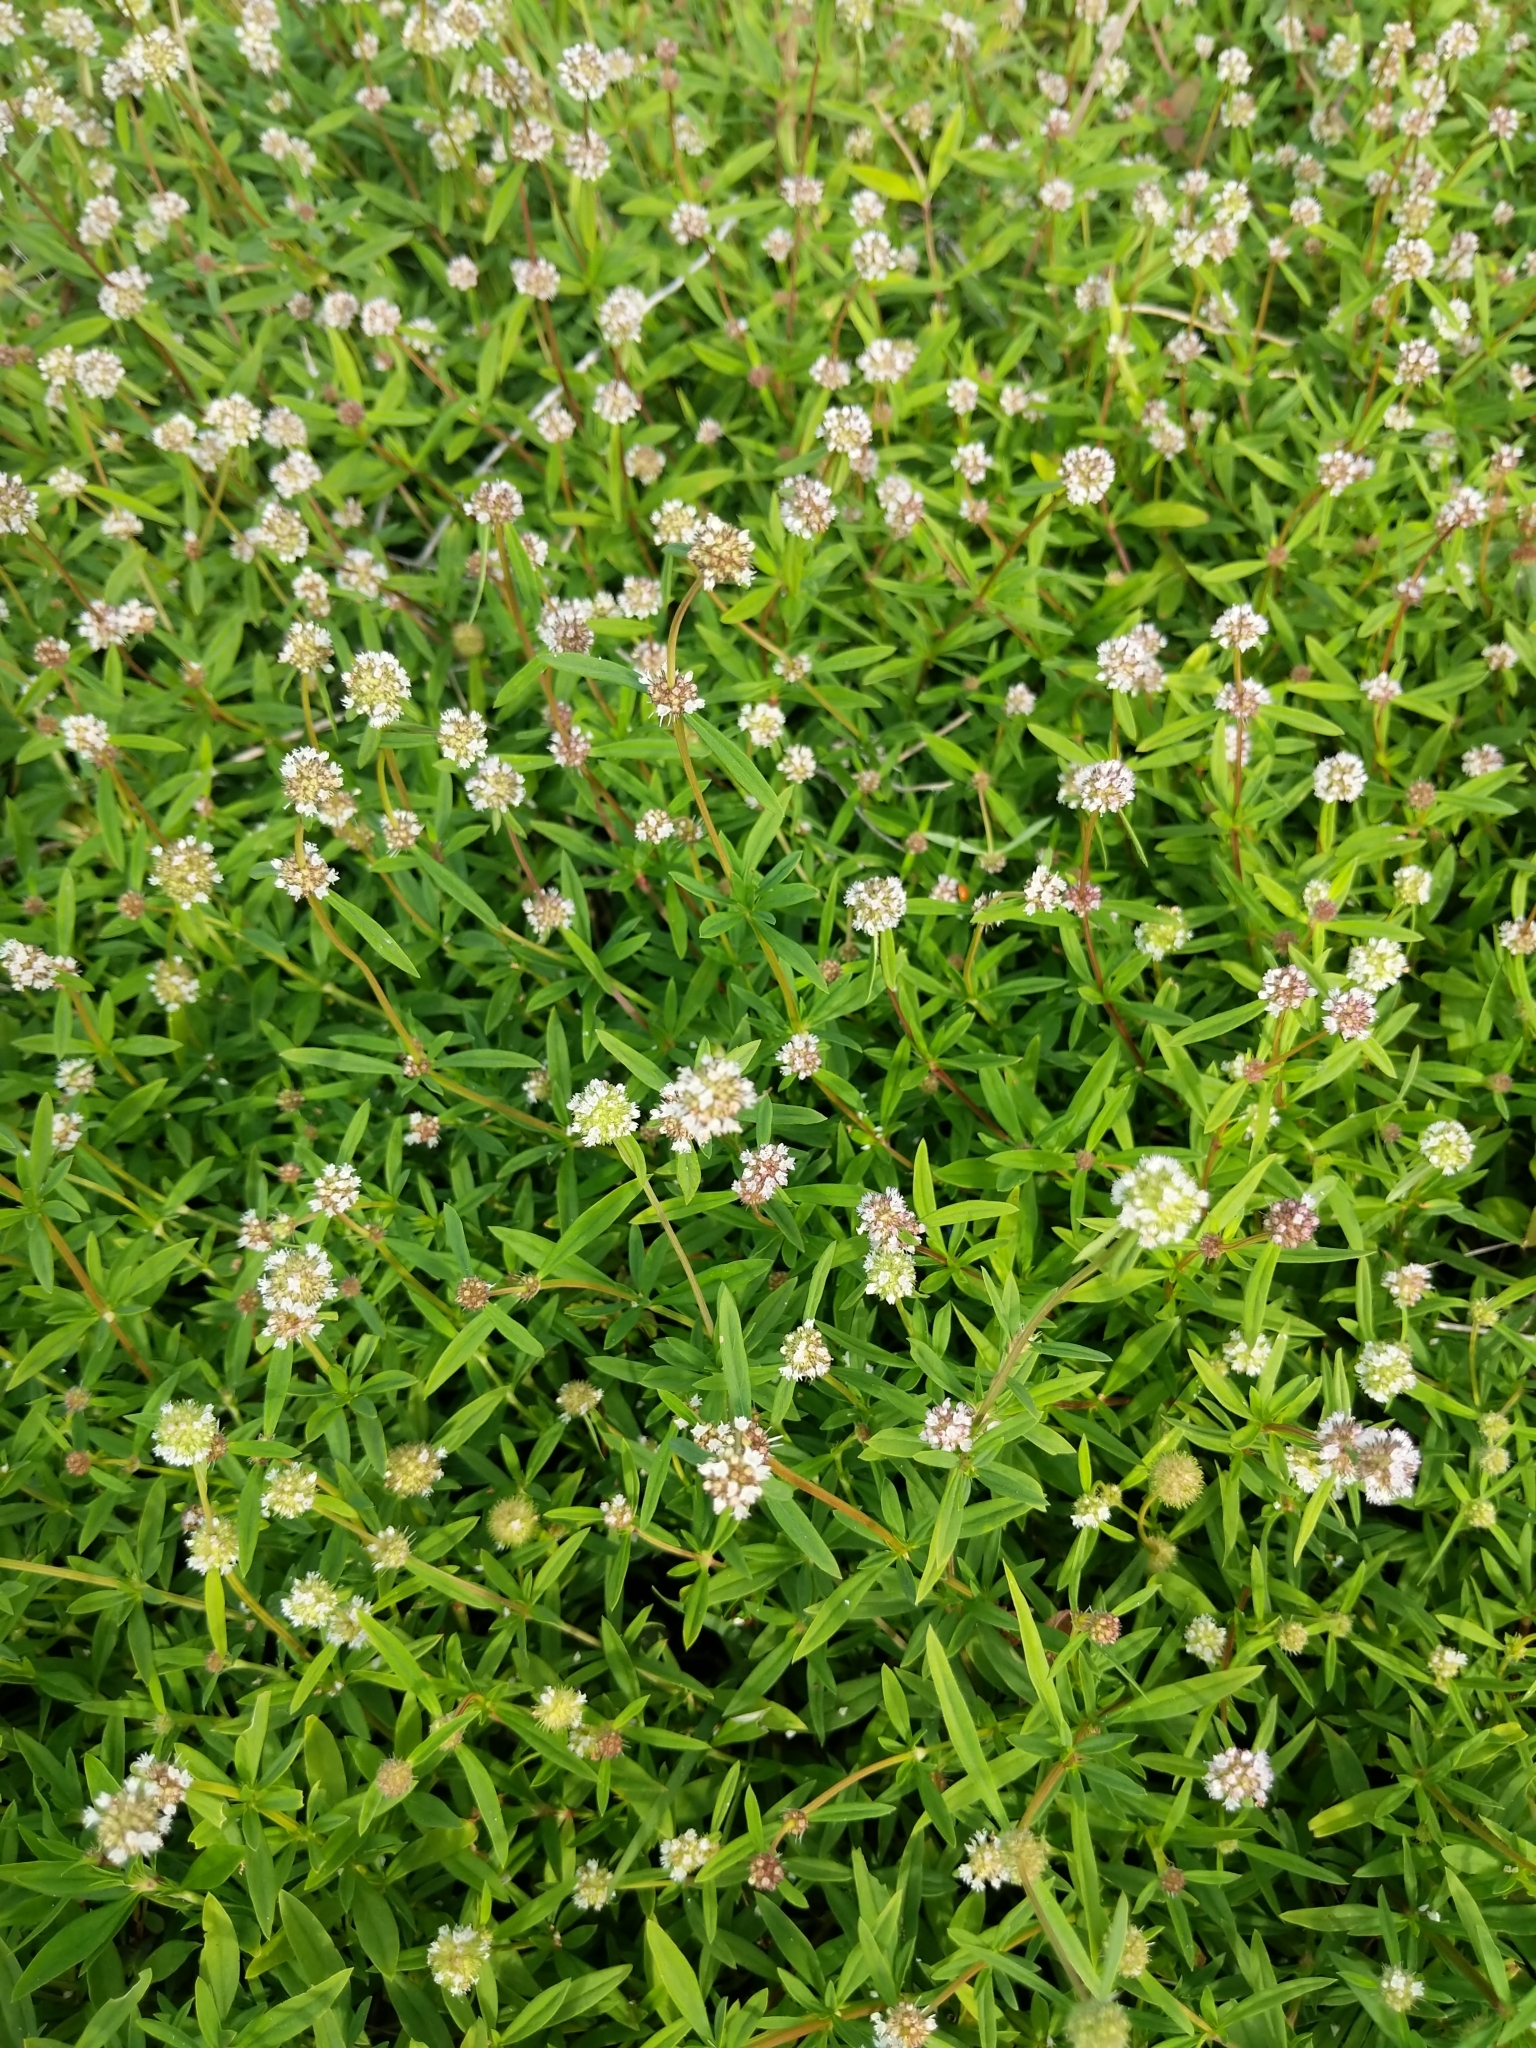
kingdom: Plantae
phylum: Tracheophyta
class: Magnoliopsida
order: Gentianales
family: Rubiaceae
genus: Spermacoce
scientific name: Spermacoce verticillata
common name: Shrubby false buttonweed
